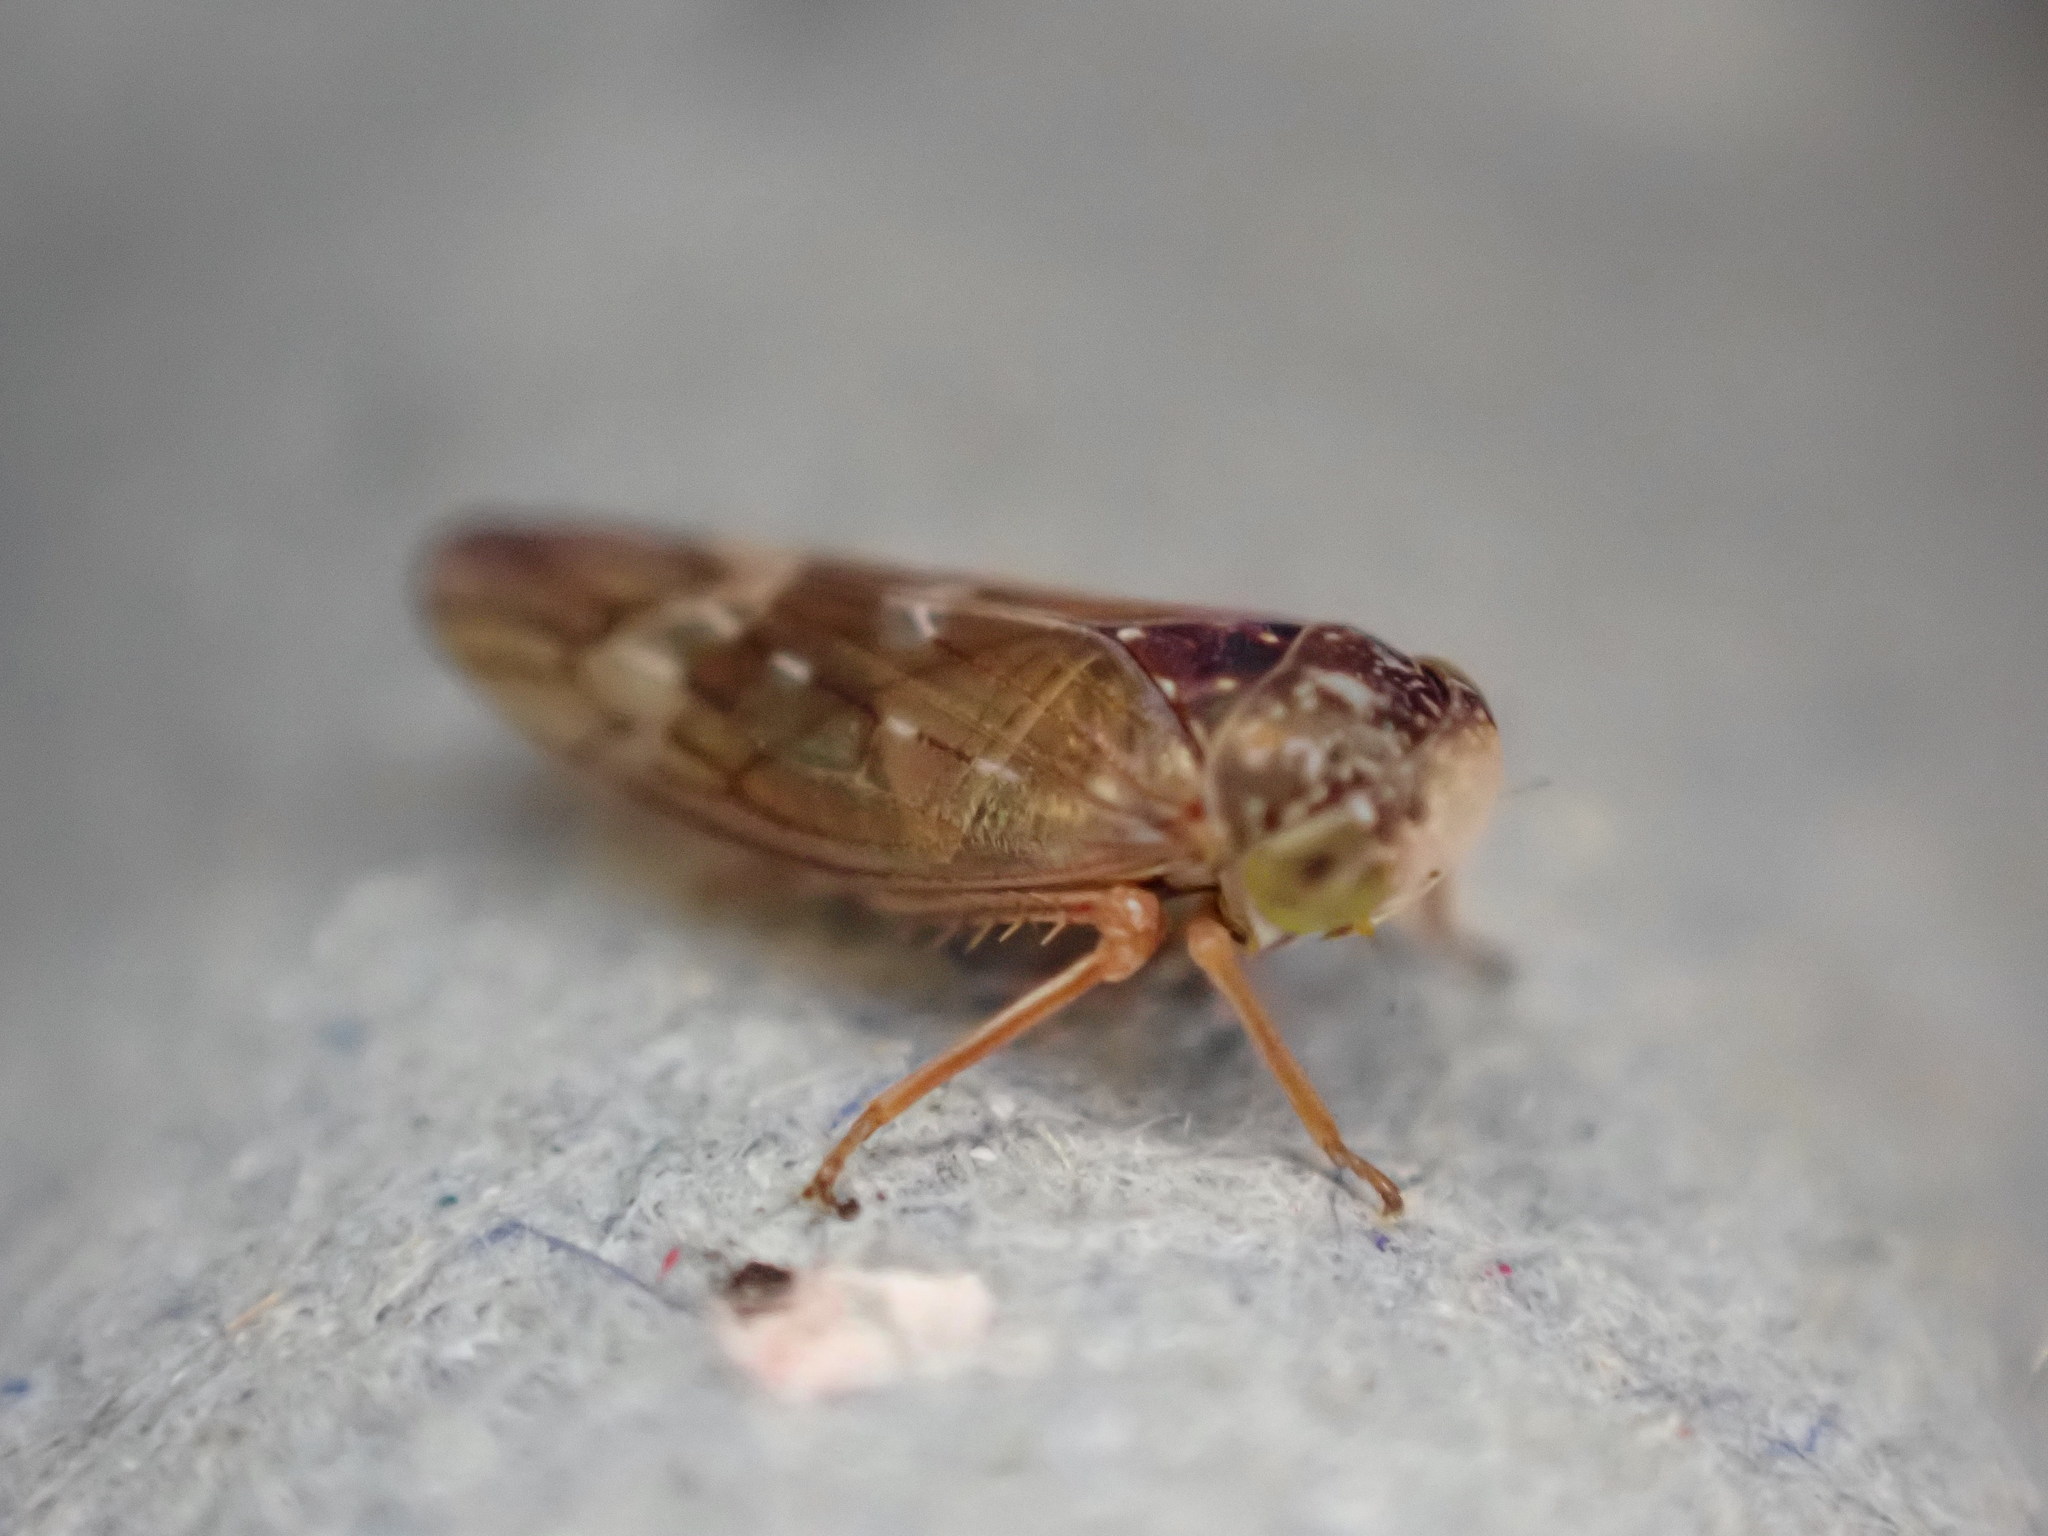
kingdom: Animalia
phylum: Arthropoda
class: Insecta
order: Hemiptera
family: Cicadellidae
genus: Metidiocerus
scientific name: Metidiocerus rutilans
